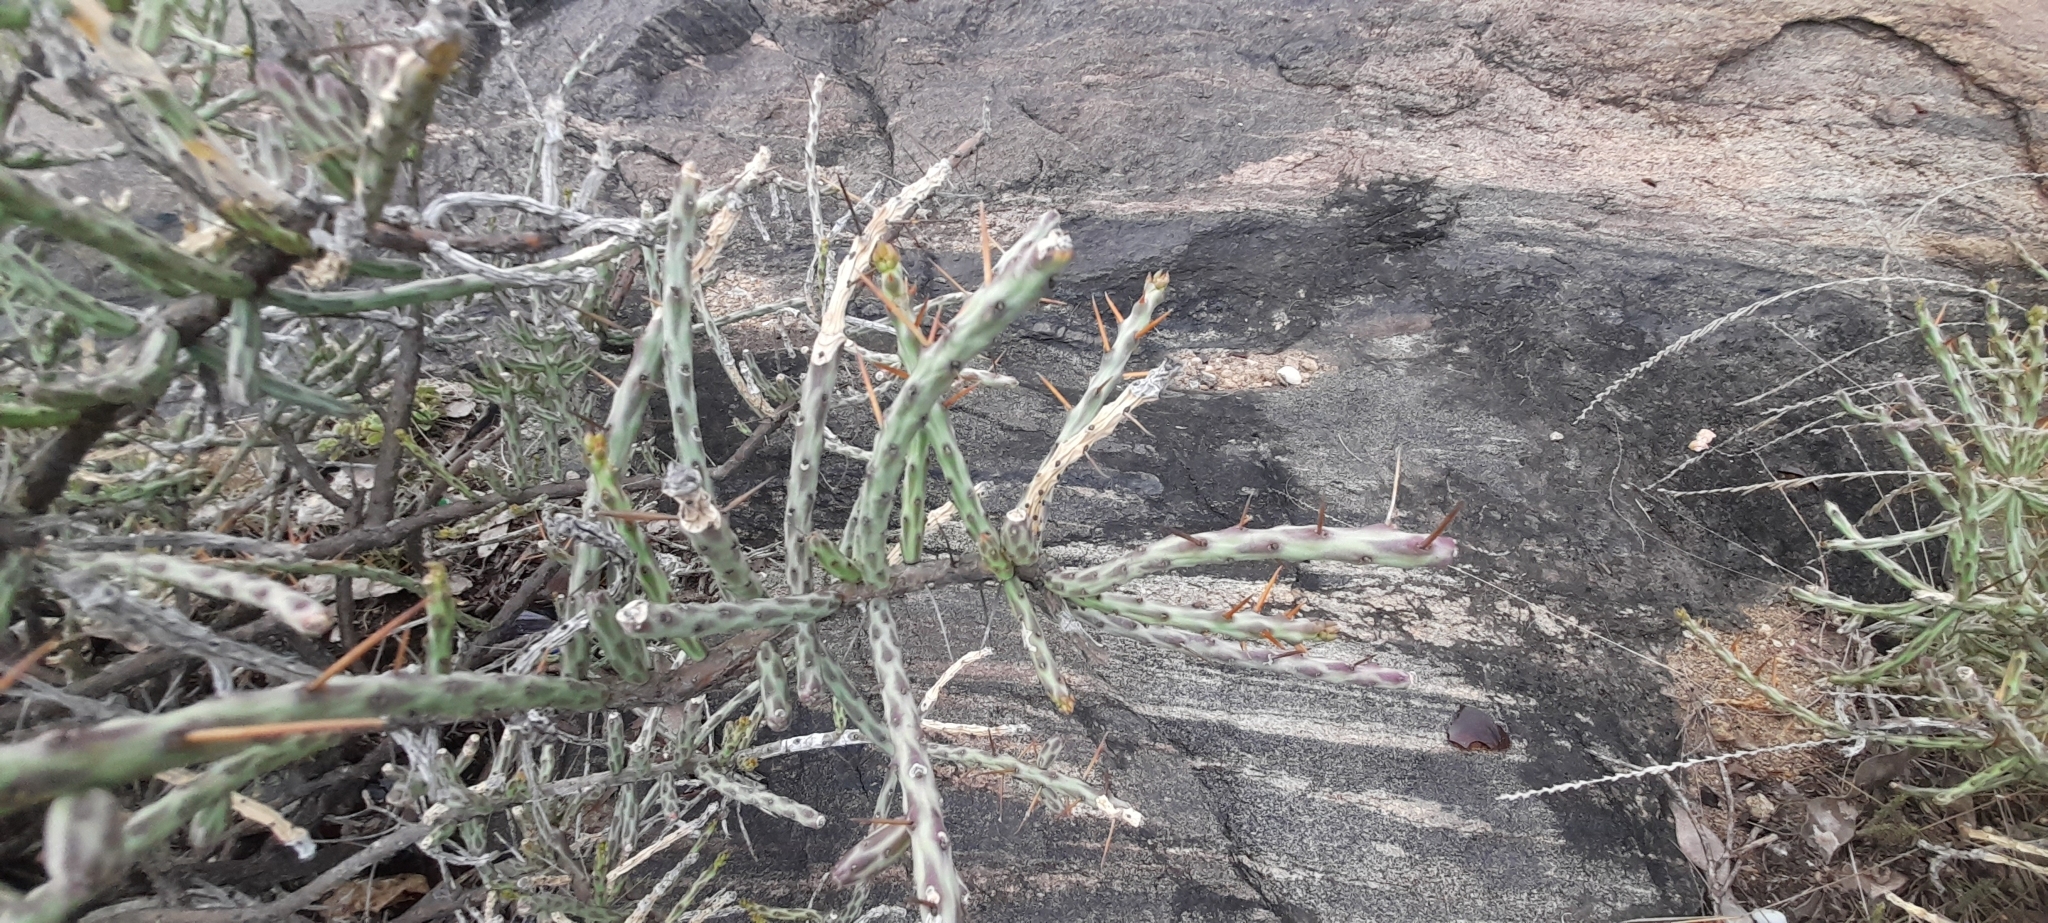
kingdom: Plantae
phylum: Tracheophyta
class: Magnoliopsida
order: Caryophyllales
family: Cactaceae
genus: Cylindropuntia
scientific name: Cylindropuntia leptocaulis
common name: Christmas cactus
